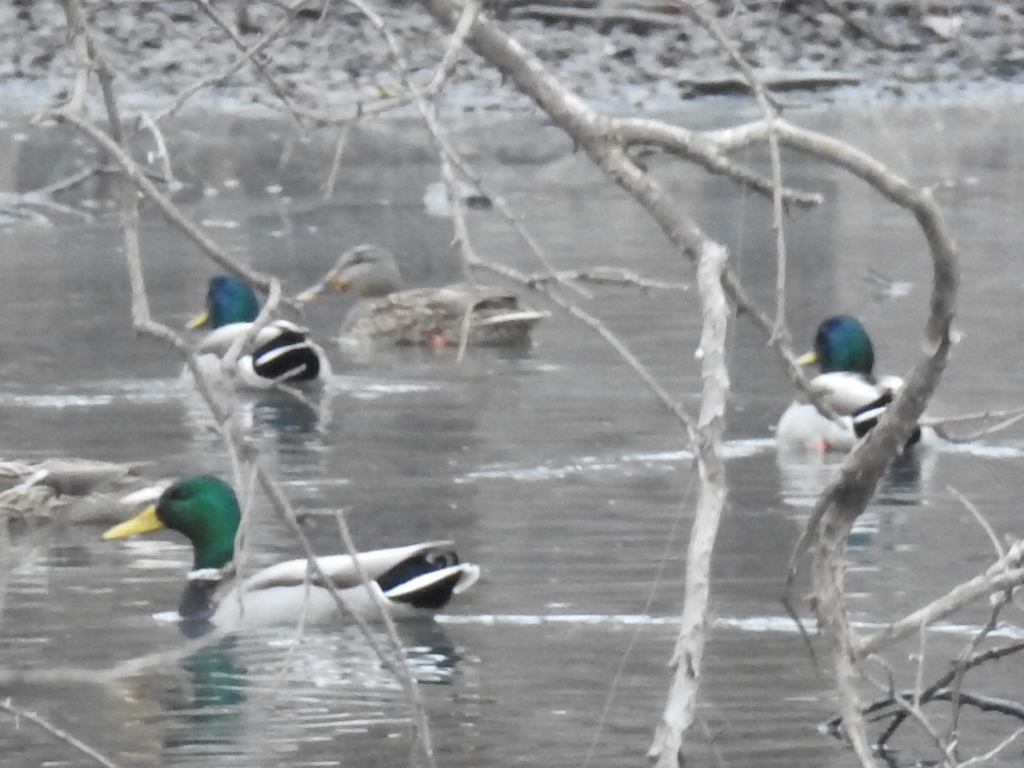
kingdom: Animalia
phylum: Chordata
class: Aves
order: Anseriformes
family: Anatidae
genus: Anas
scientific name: Anas platyrhynchos
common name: Mallard
